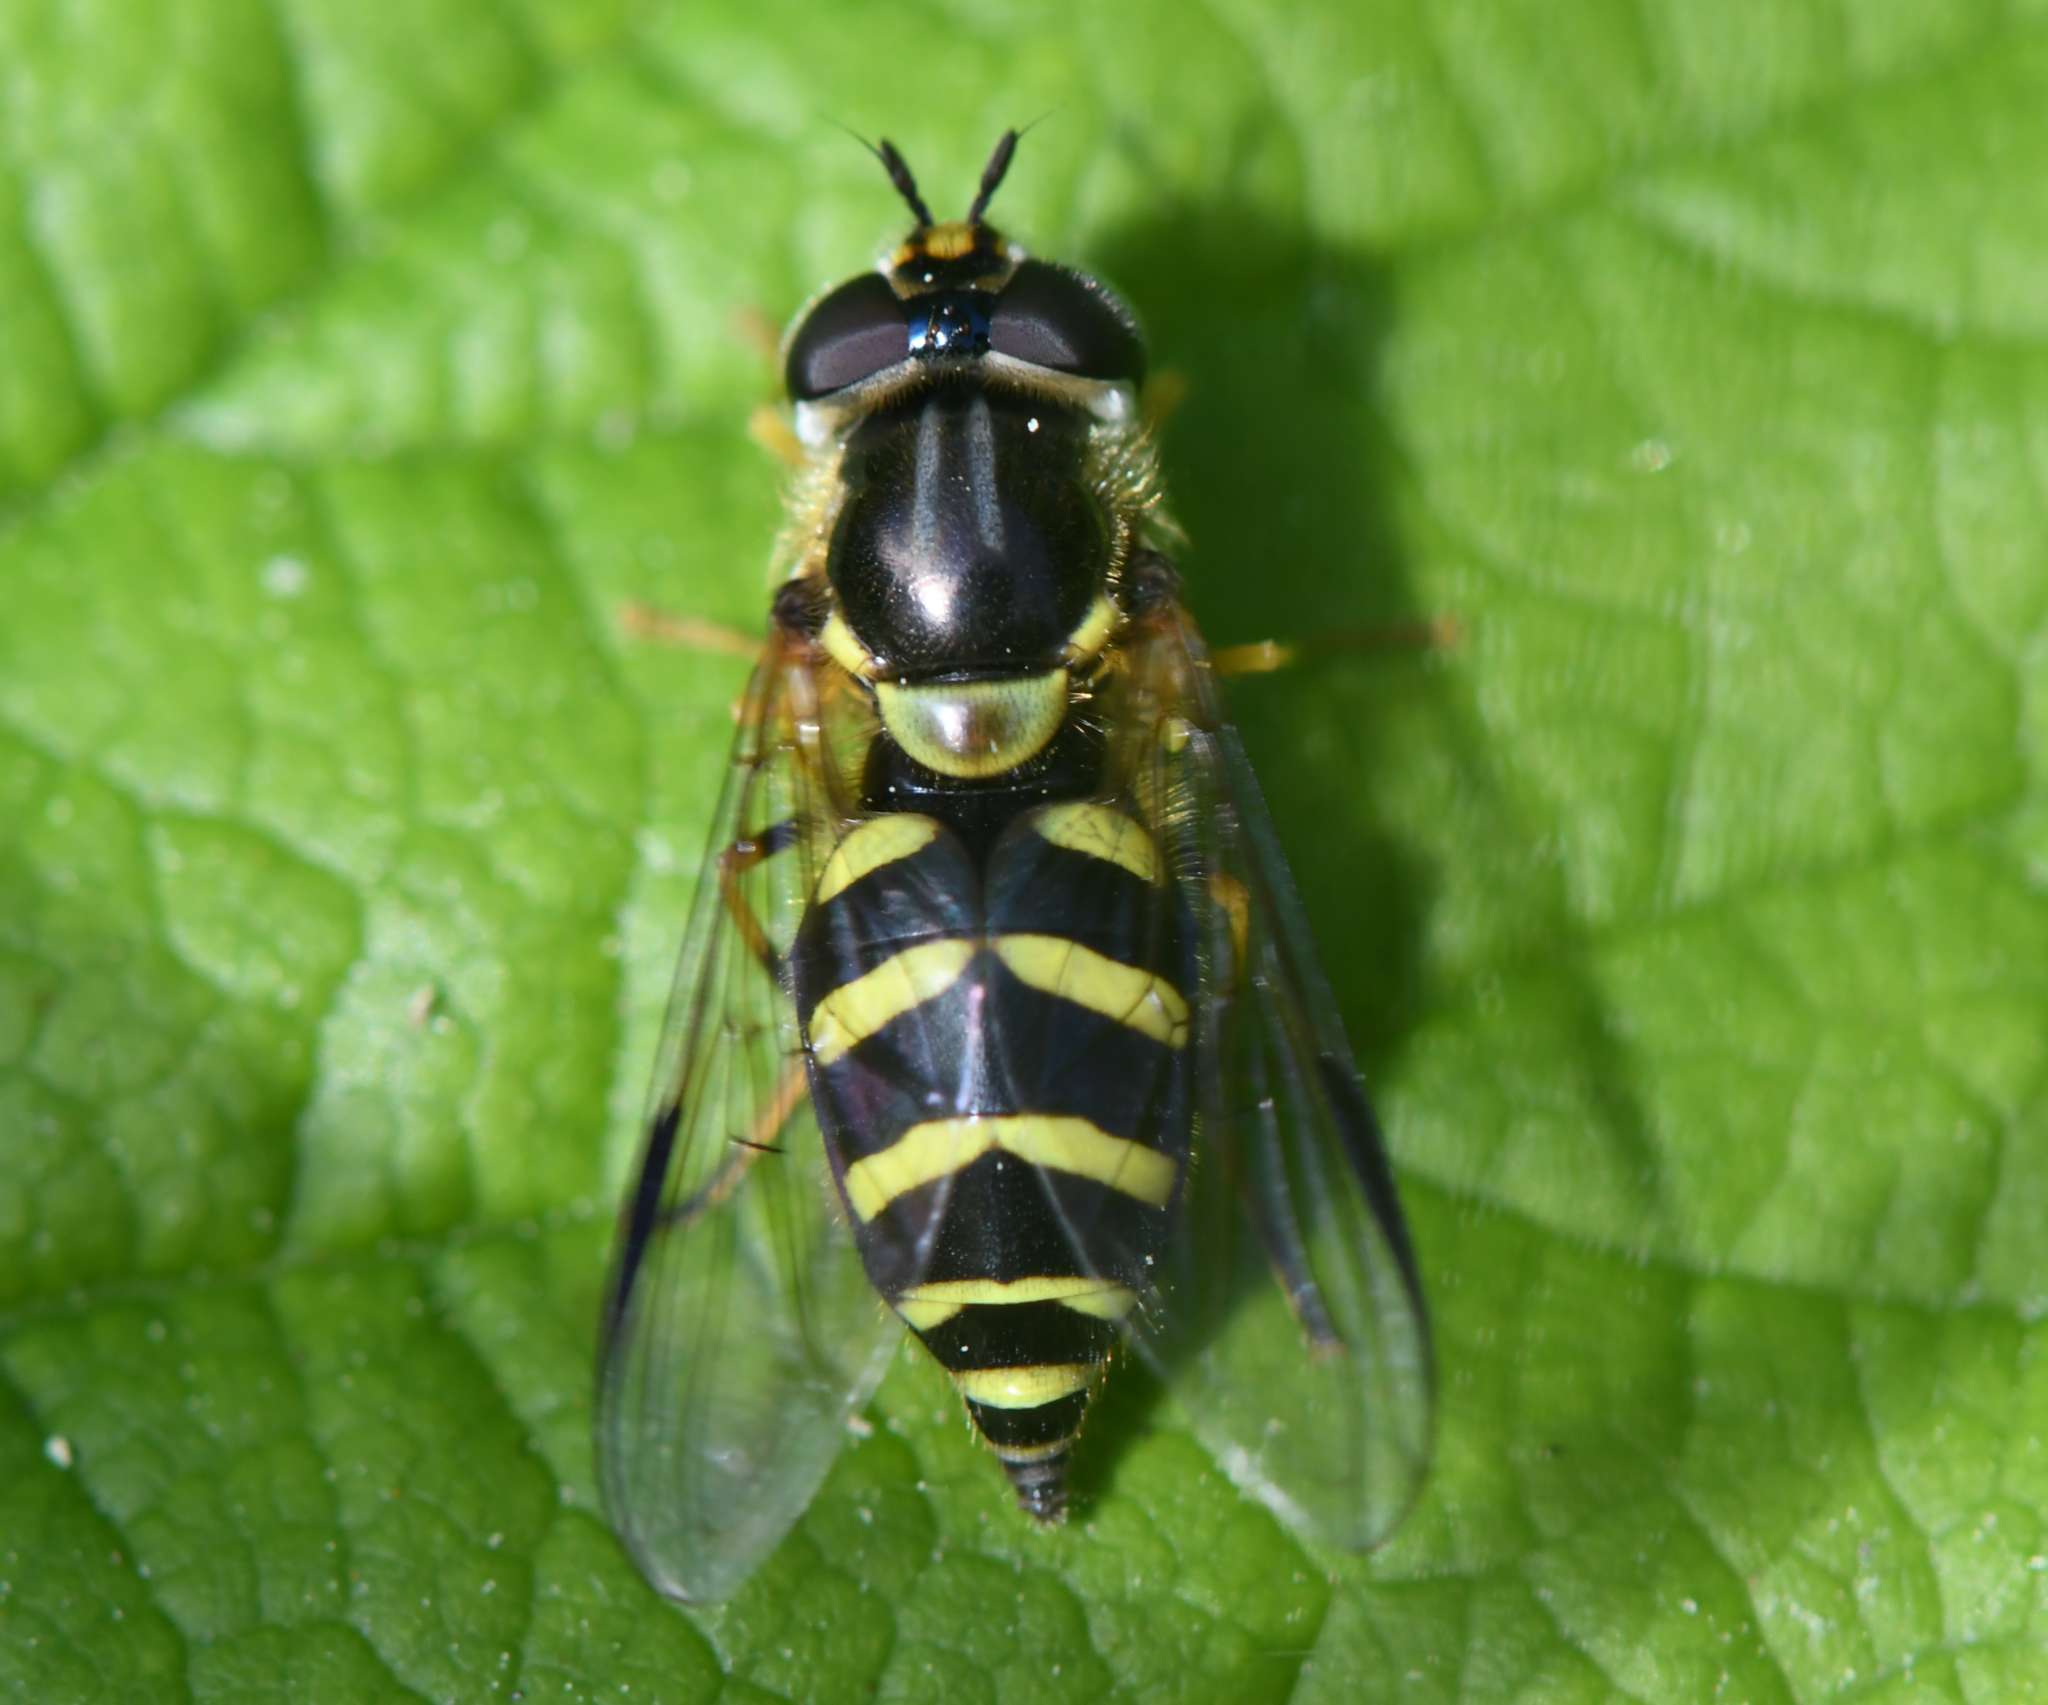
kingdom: Animalia
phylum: Arthropoda
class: Insecta
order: Diptera
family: Syrphidae
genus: Dasysyrphus
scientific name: Dasysyrphus albostriatus
